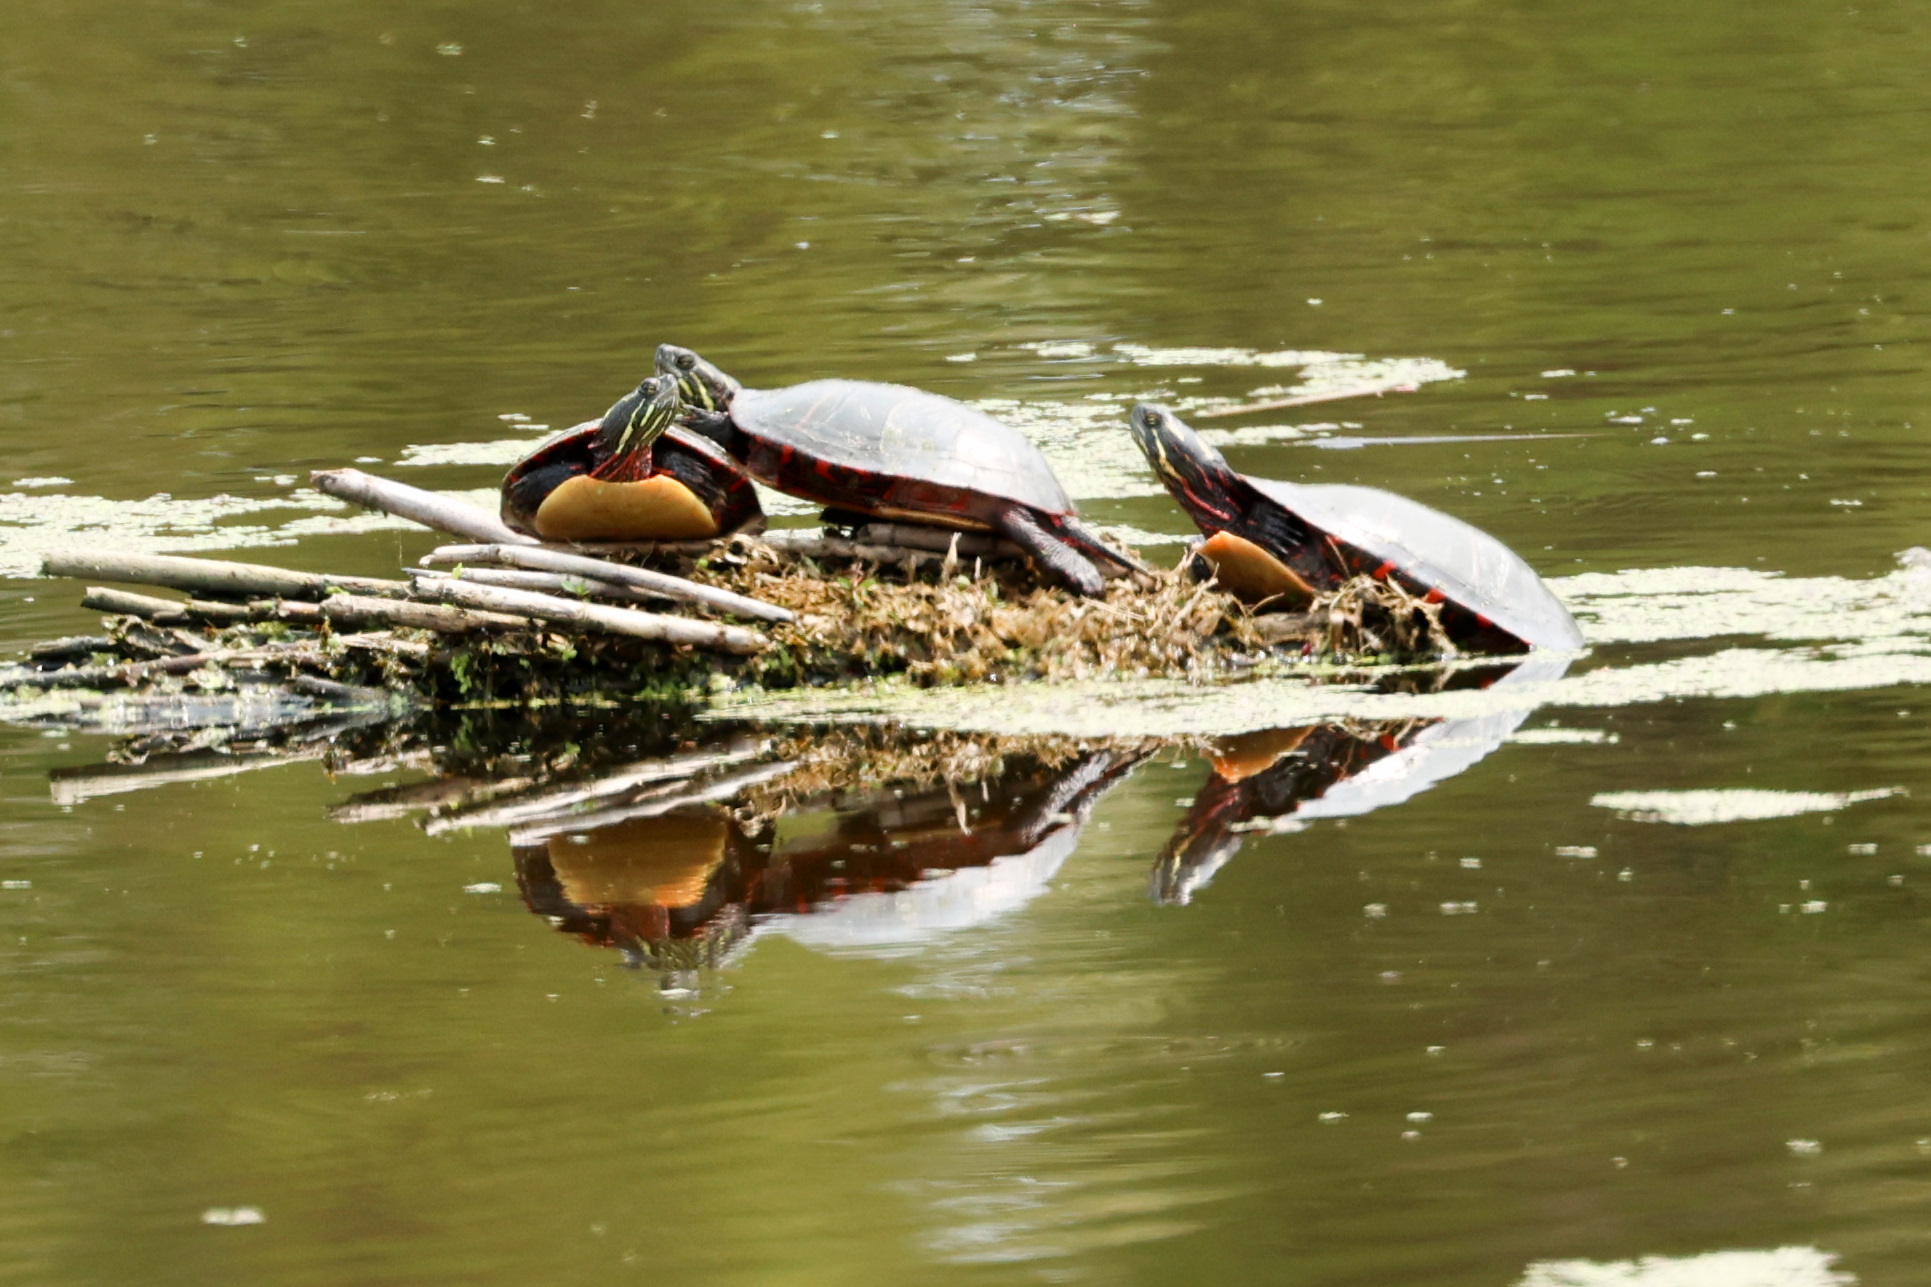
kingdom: Animalia
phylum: Chordata
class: Testudines
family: Emydidae
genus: Chrysemys
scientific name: Chrysemys picta
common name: Painted turtle
